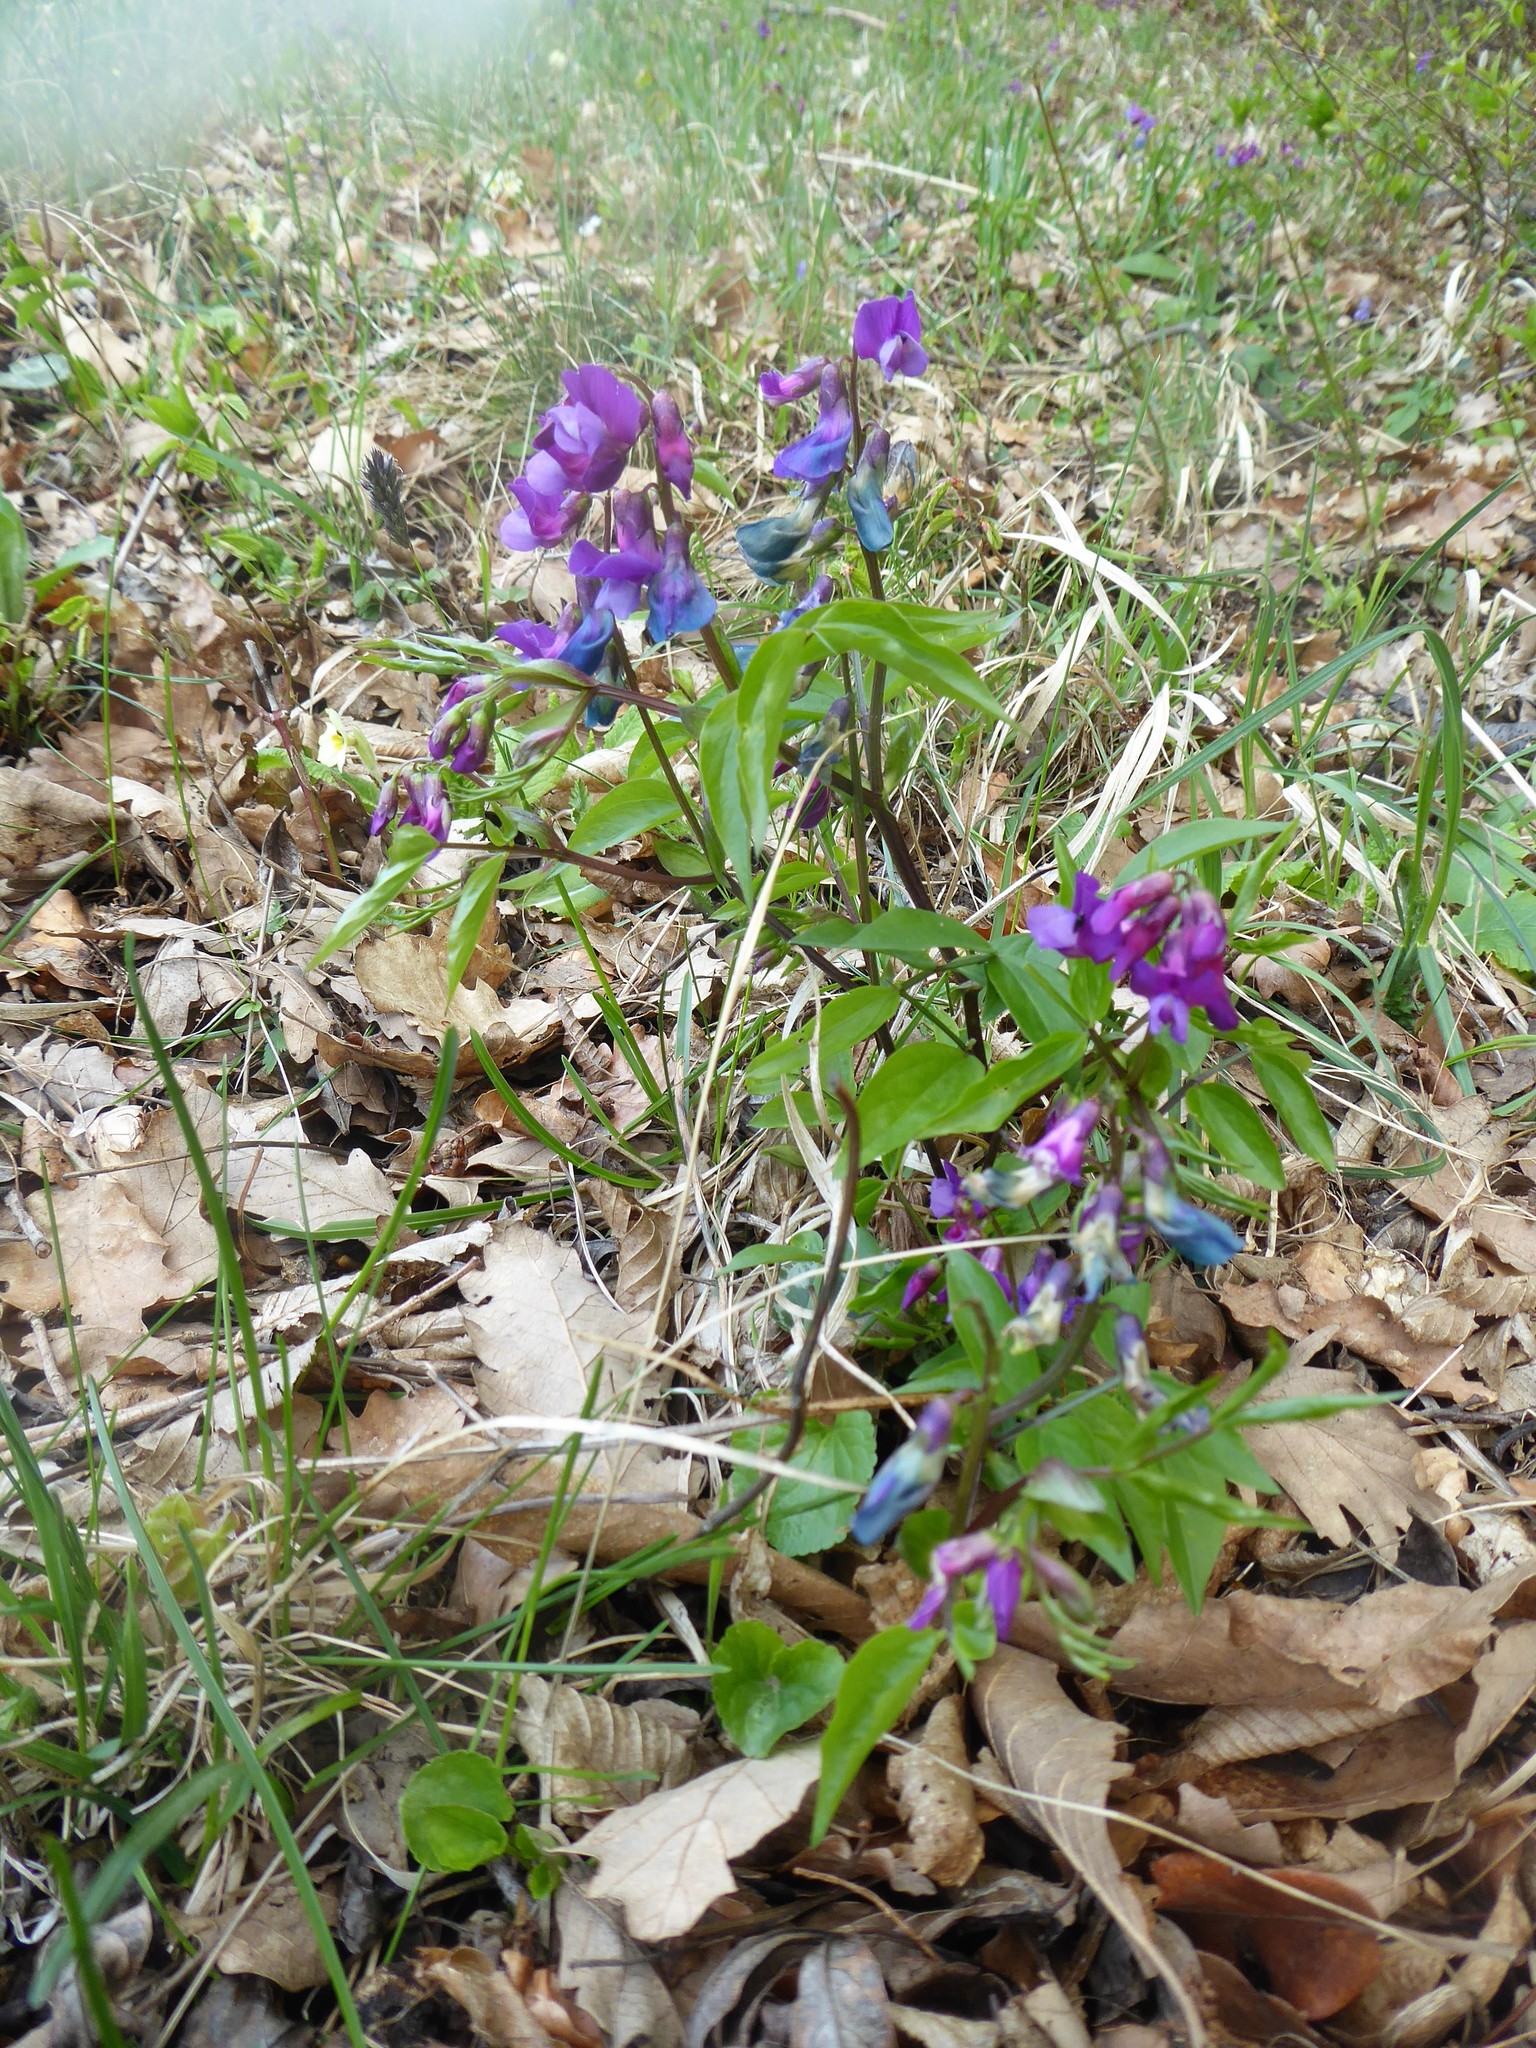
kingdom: Plantae
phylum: Tracheophyta
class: Magnoliopsida
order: Fabales
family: Fabaceae
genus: Lathyrus
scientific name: Lathyrus vernus
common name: Spring pea
